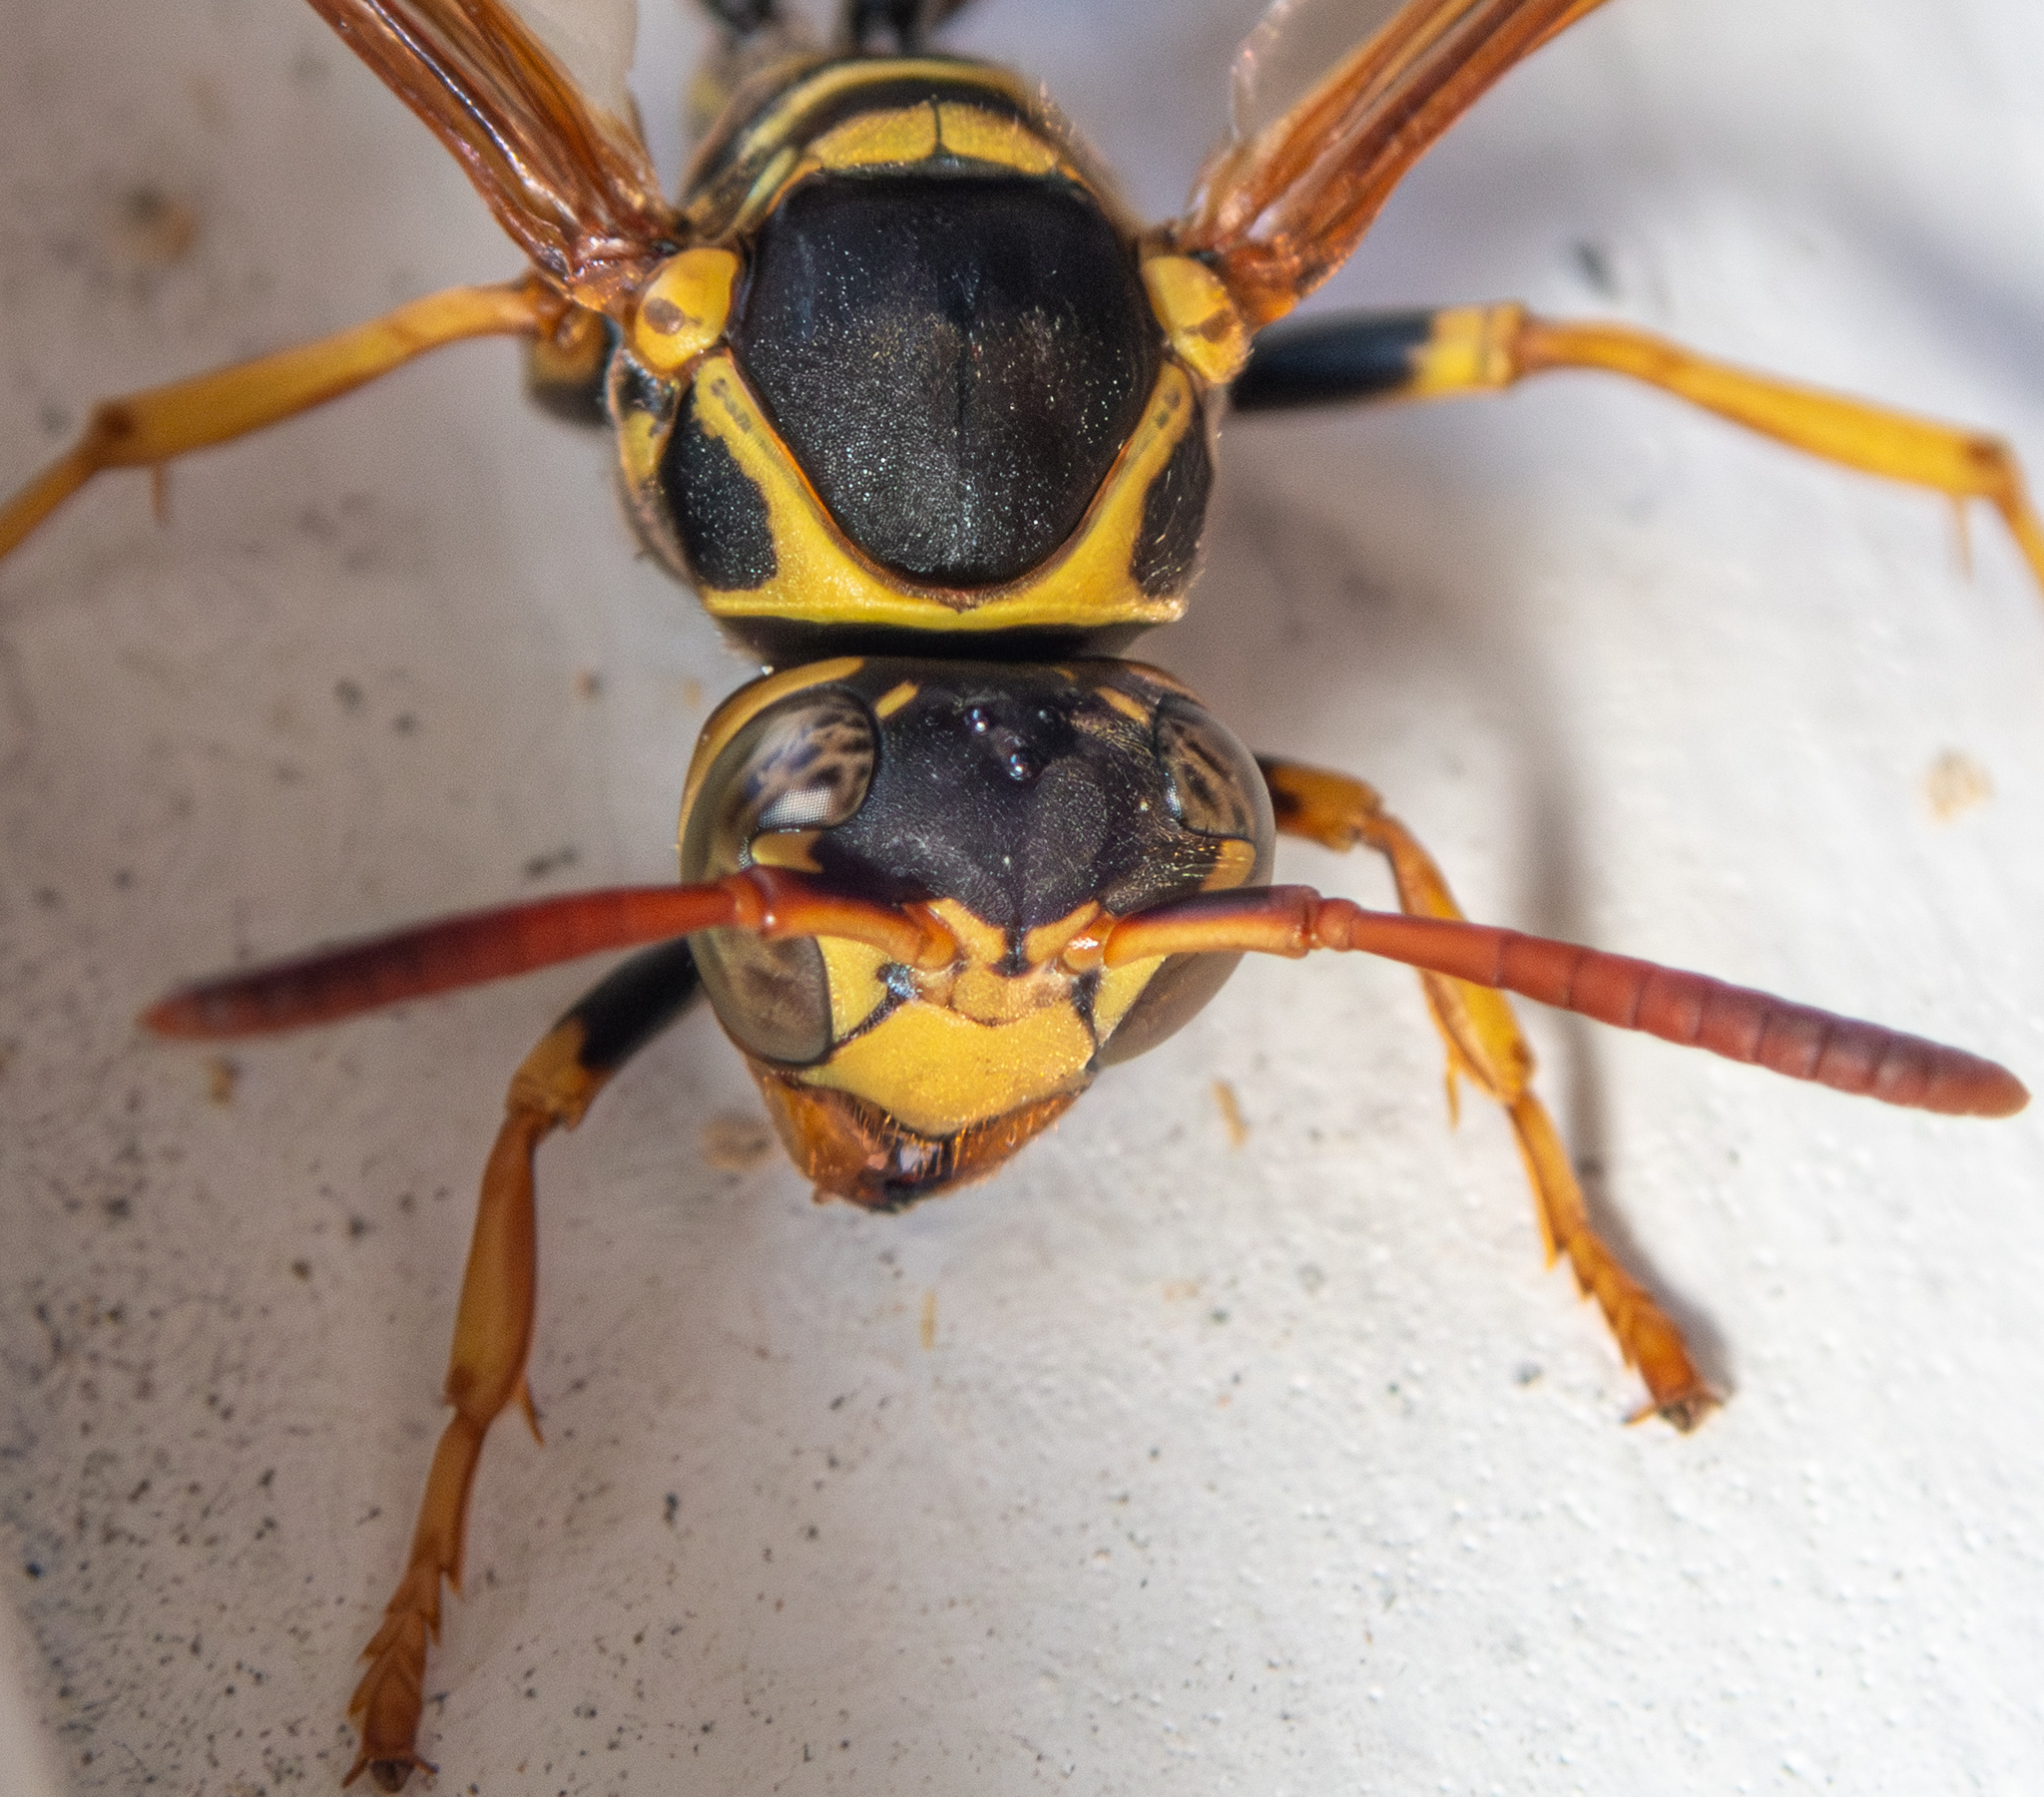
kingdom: Animalia
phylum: Arthropoda
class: Insecta
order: Hymenoptera
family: Vespidae
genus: Mischocyttarus
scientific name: Mischocyttarus flavitarsis
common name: Wasp
